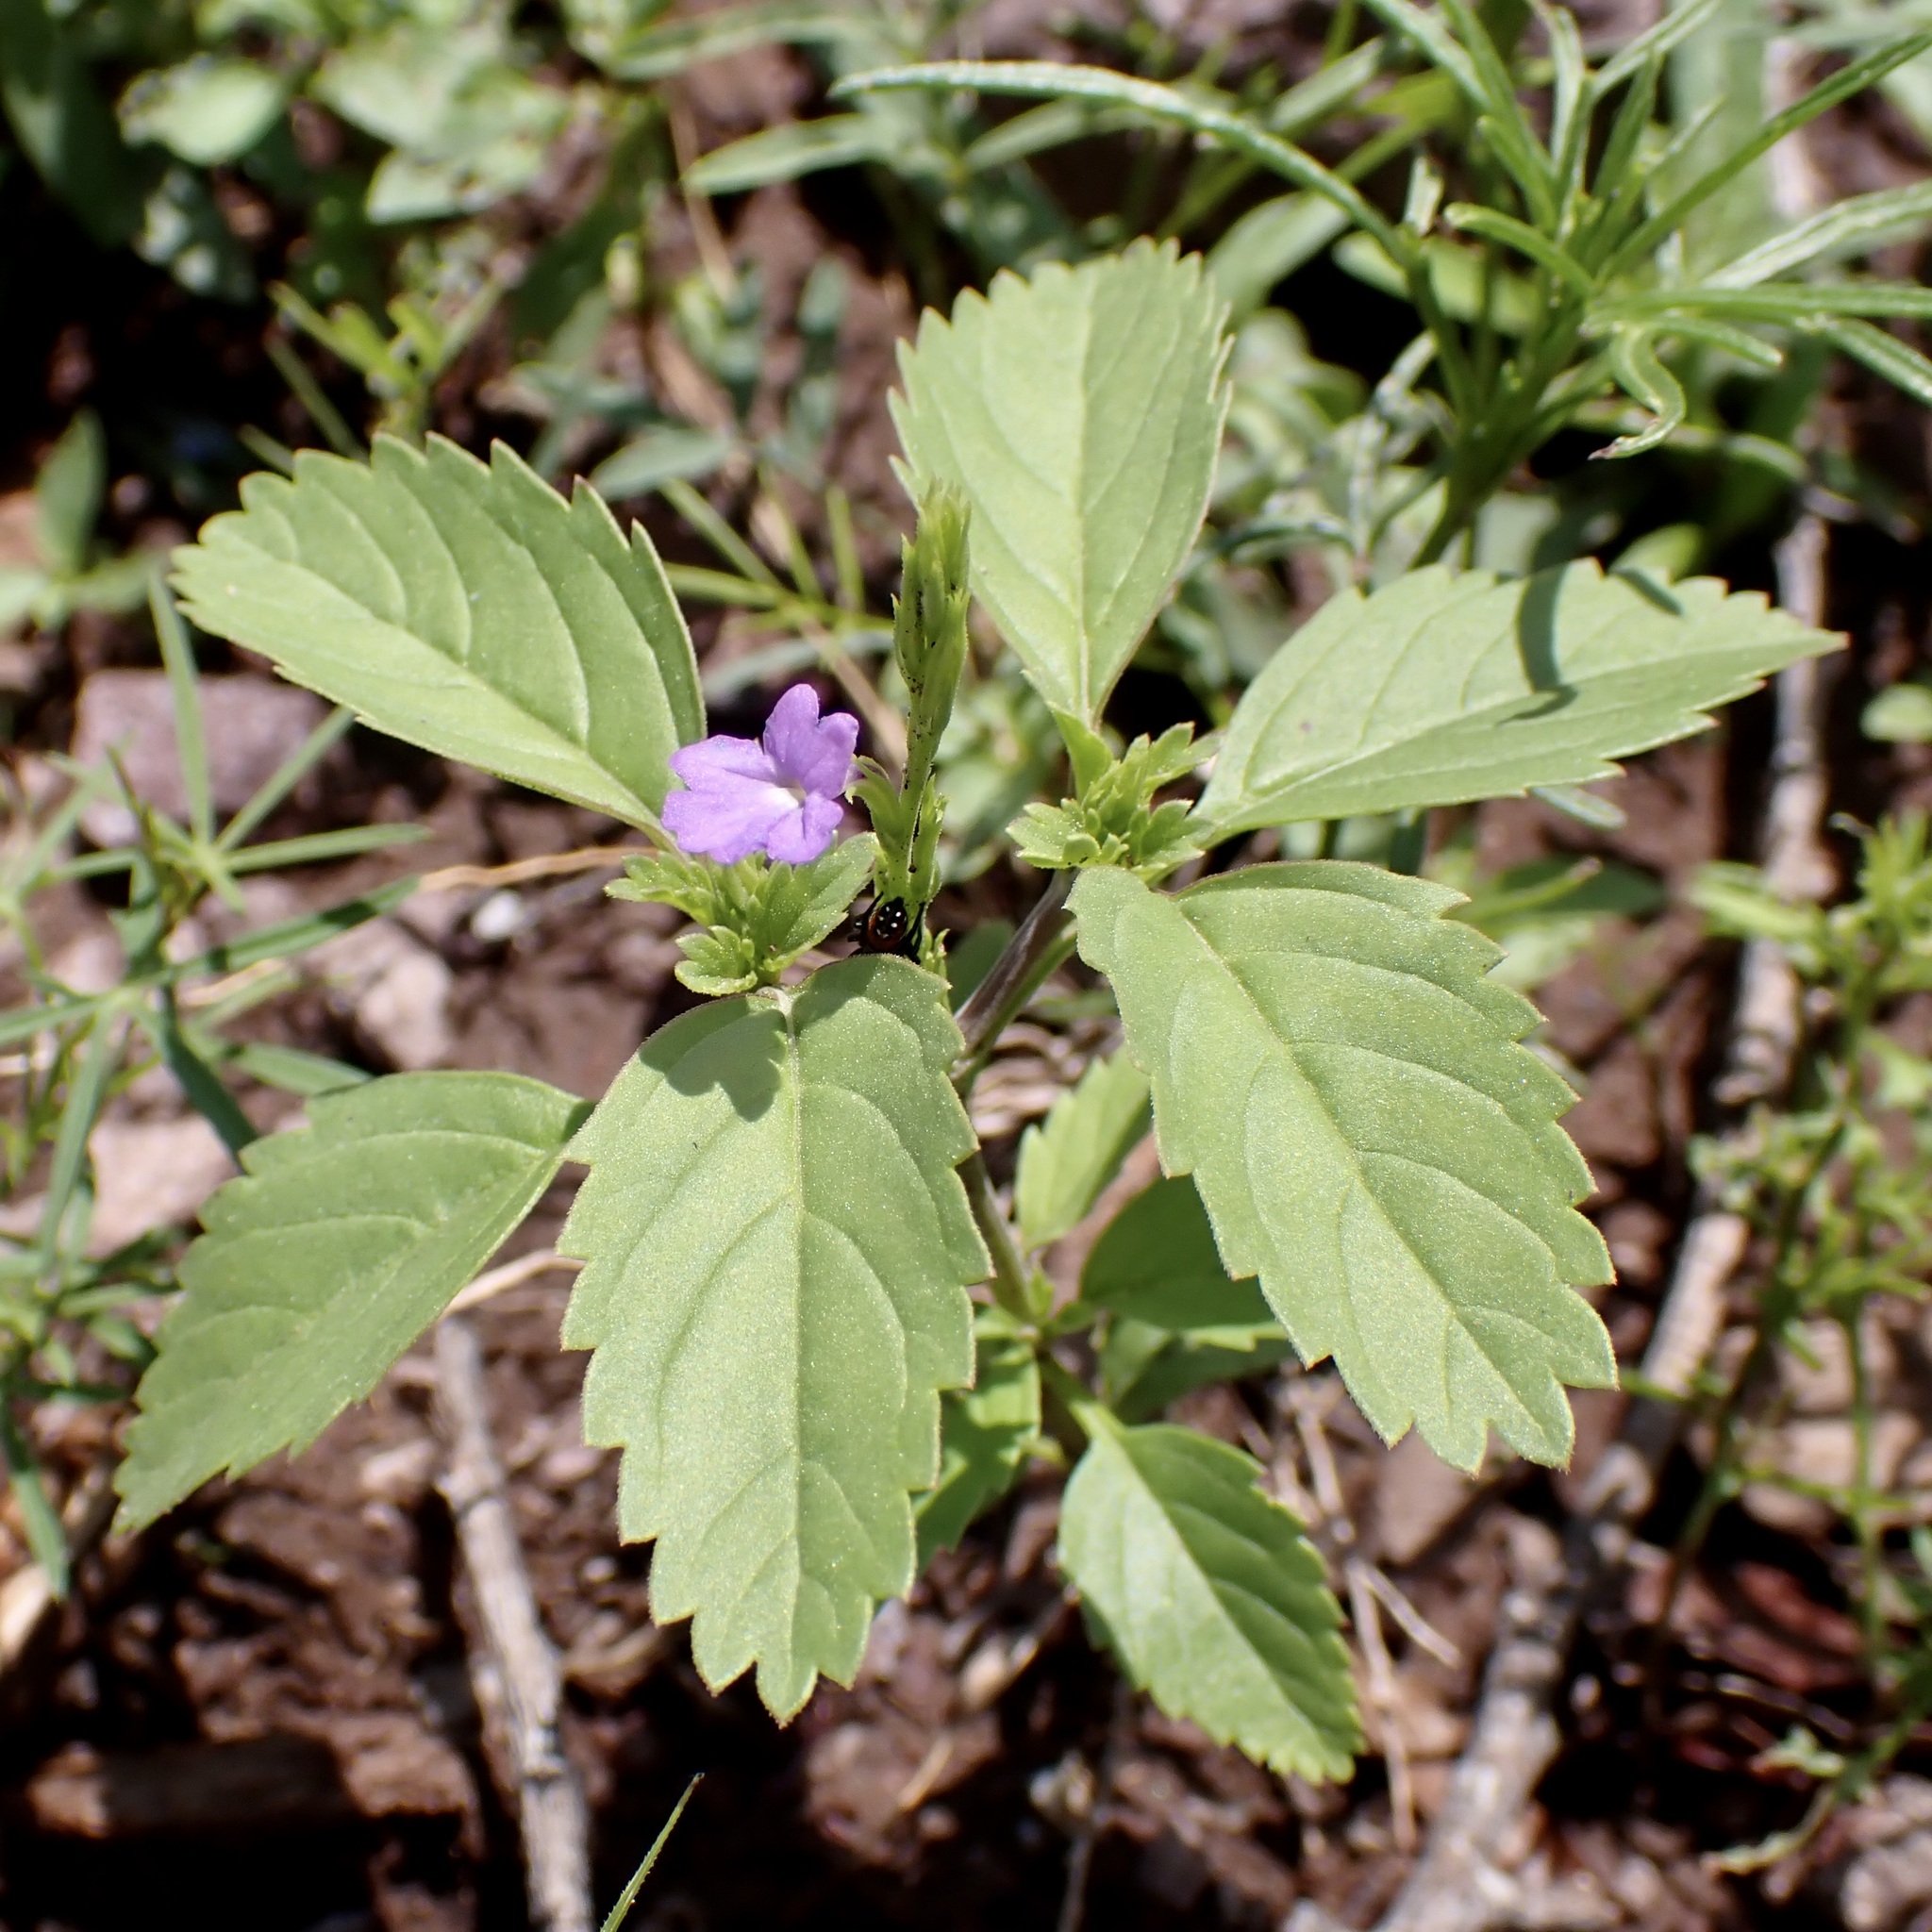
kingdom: Plantae
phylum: Tracheophyta
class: Magnoliopsida
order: Lamiales
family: Verbenaceae
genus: Bouchea
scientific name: Bouchea prismatica
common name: Vervine
